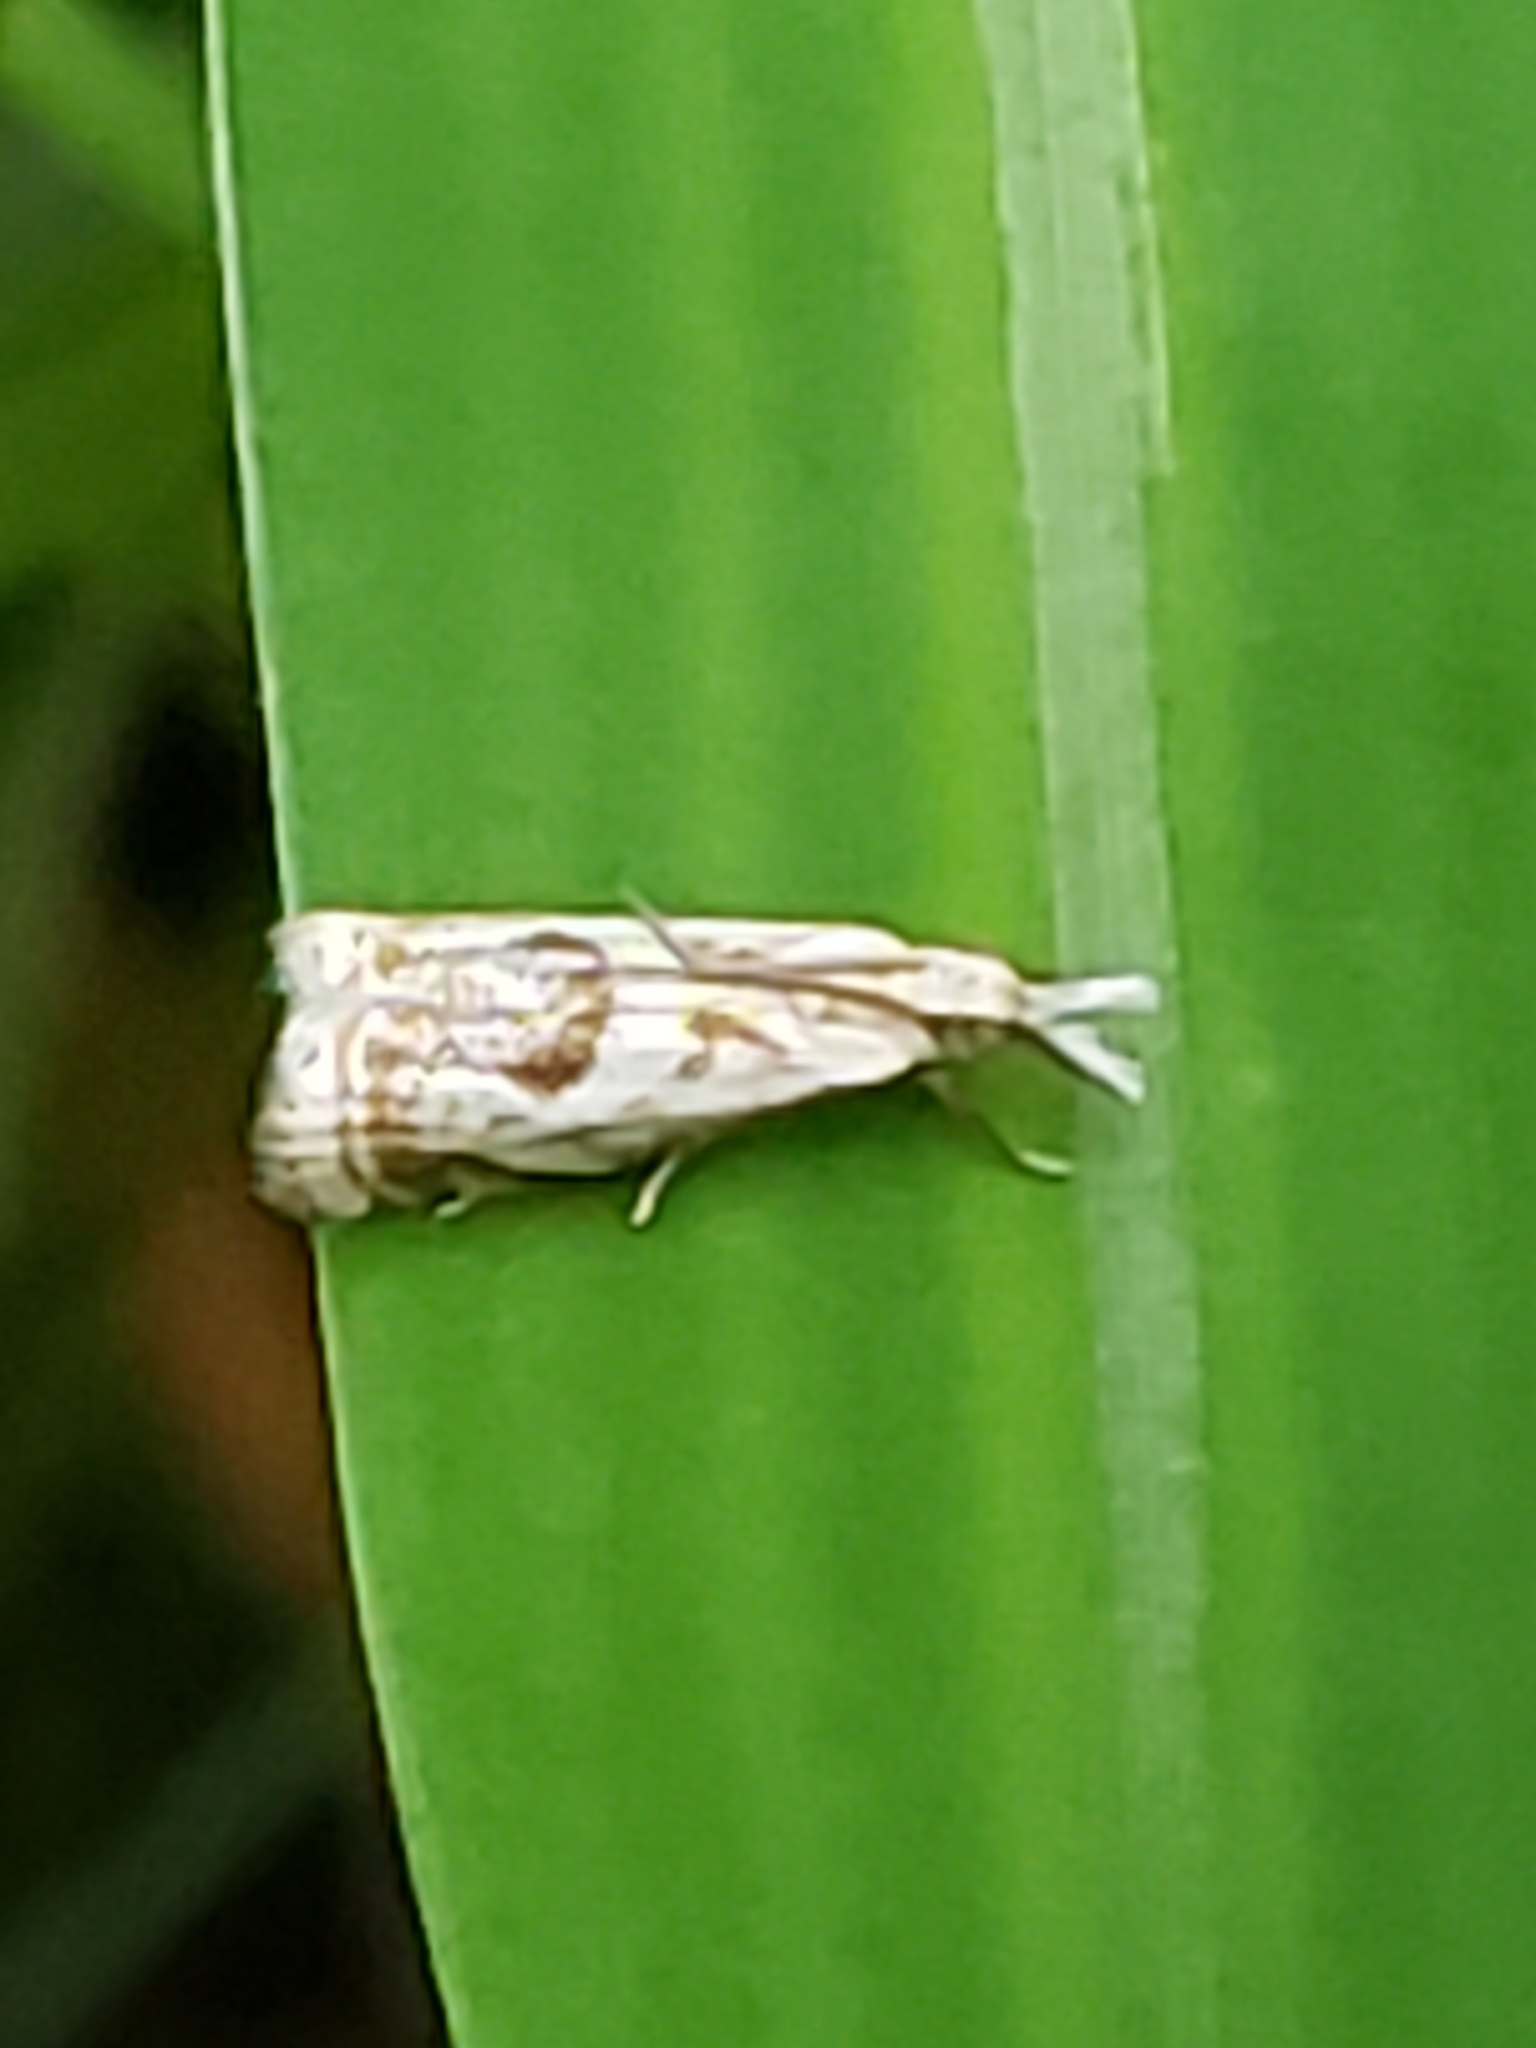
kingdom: Animalia
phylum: Arthropoda
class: Insecta
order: Lepidoptera
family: Crambidae
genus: Microcrambus
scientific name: Microcrambus elegans
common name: Elegant grass-veneer
